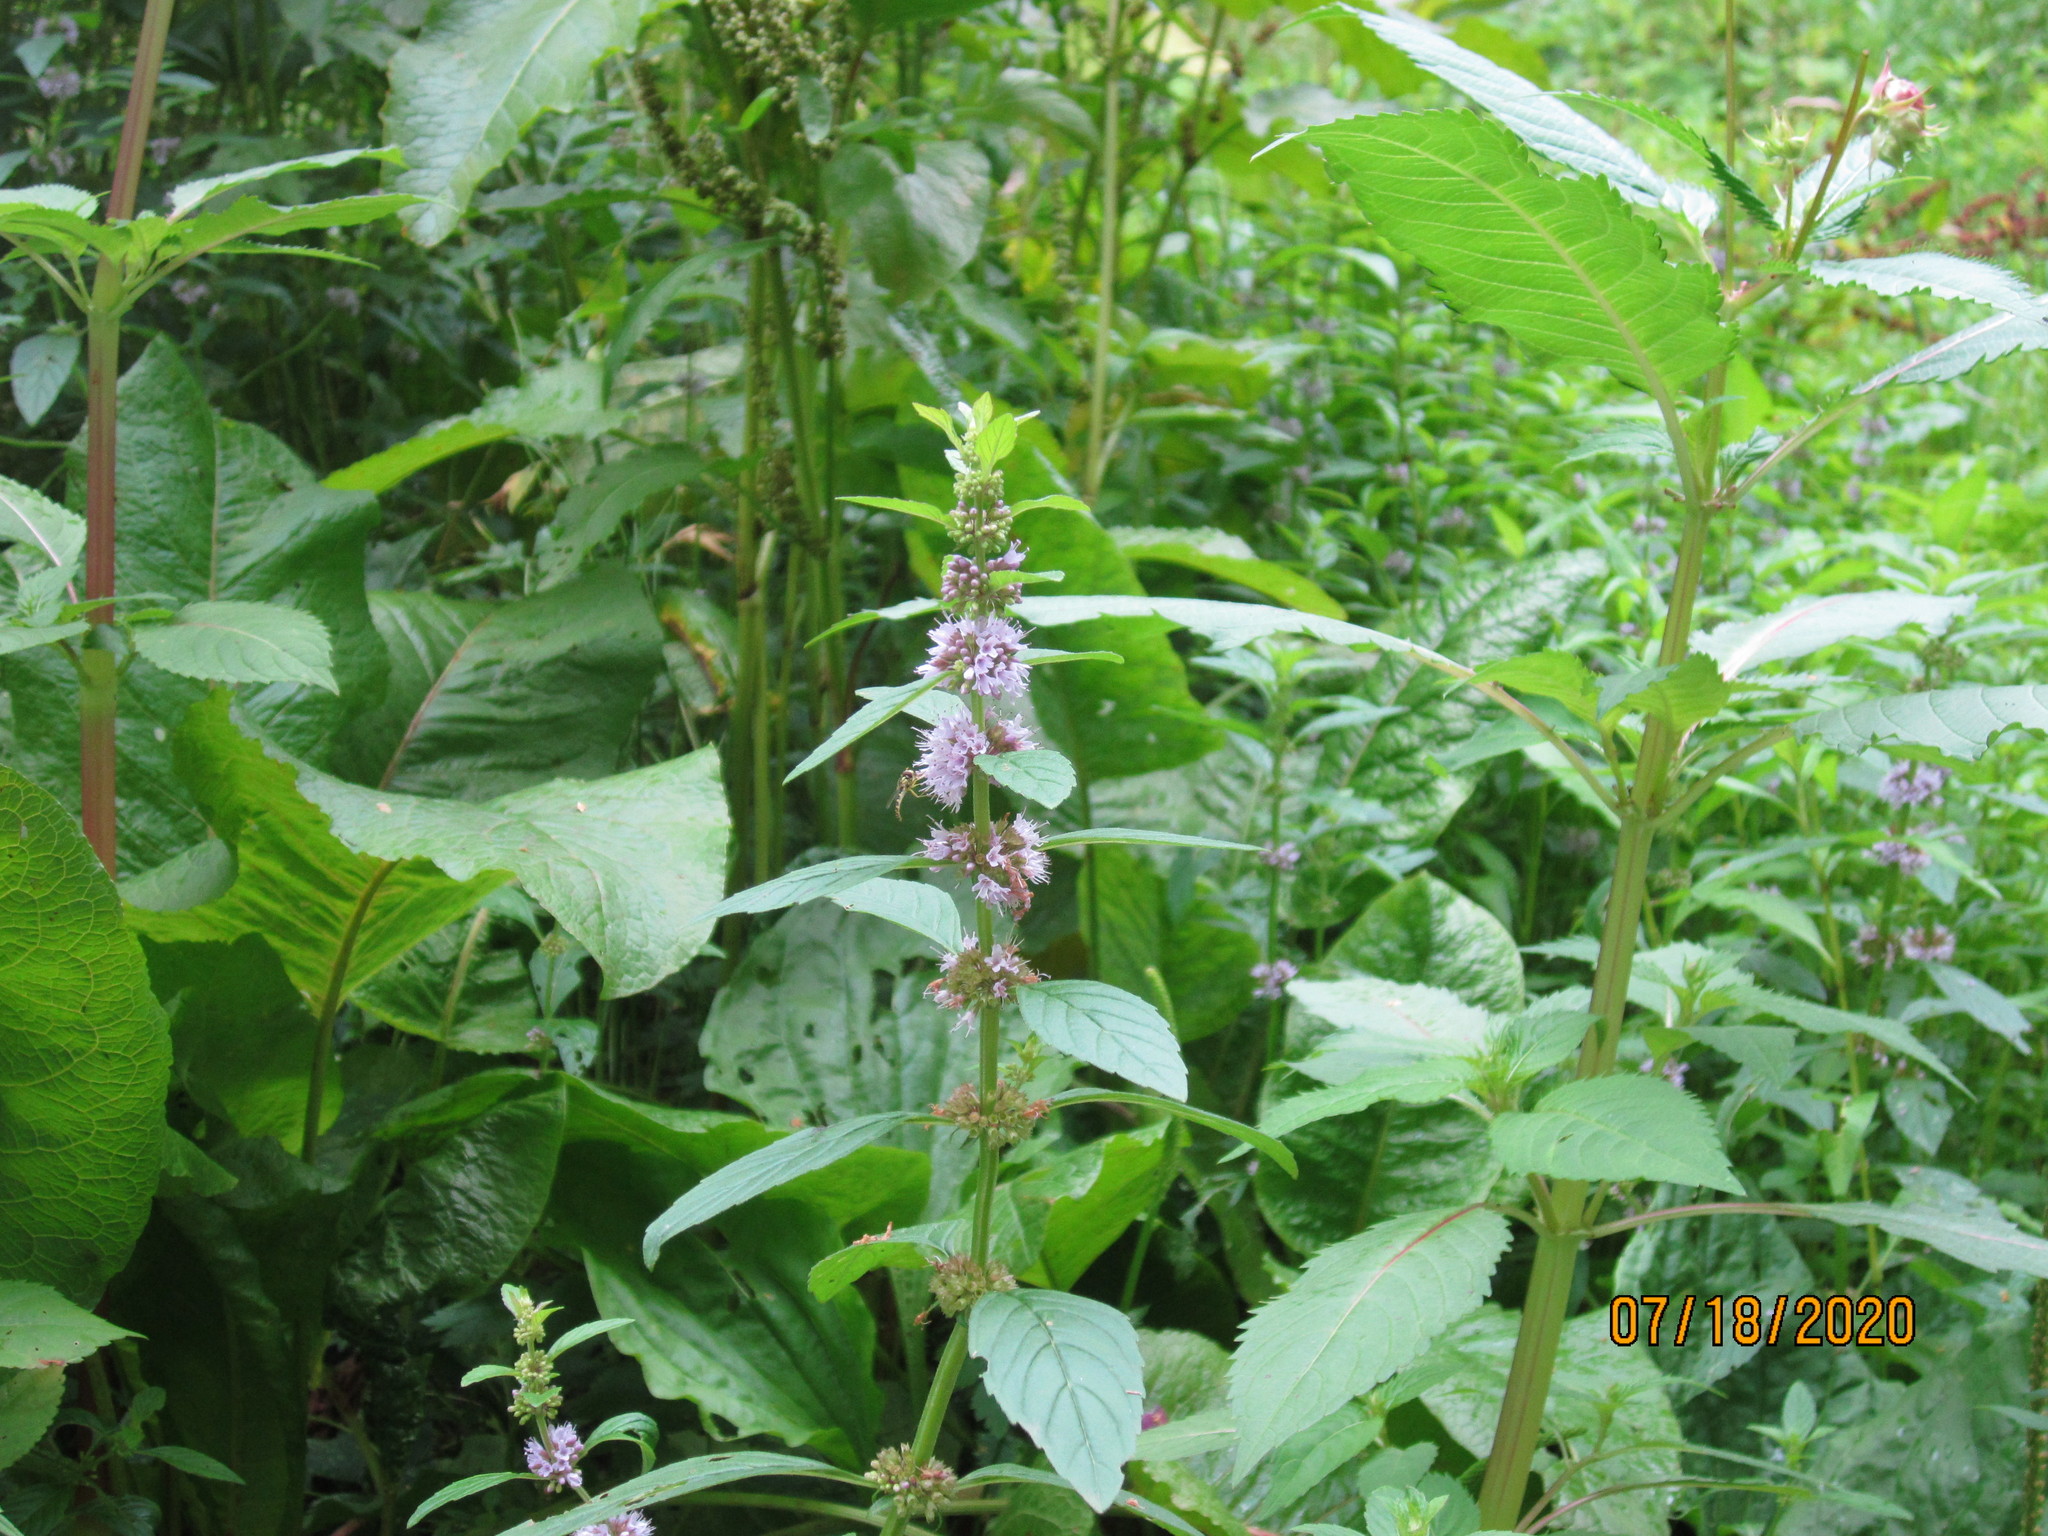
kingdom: Plantae
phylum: Tracheophyta
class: Magnoliopsida
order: Lamiales
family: Lamiaceae
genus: Mentha
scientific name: Mentha arvensis
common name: Corn mint
